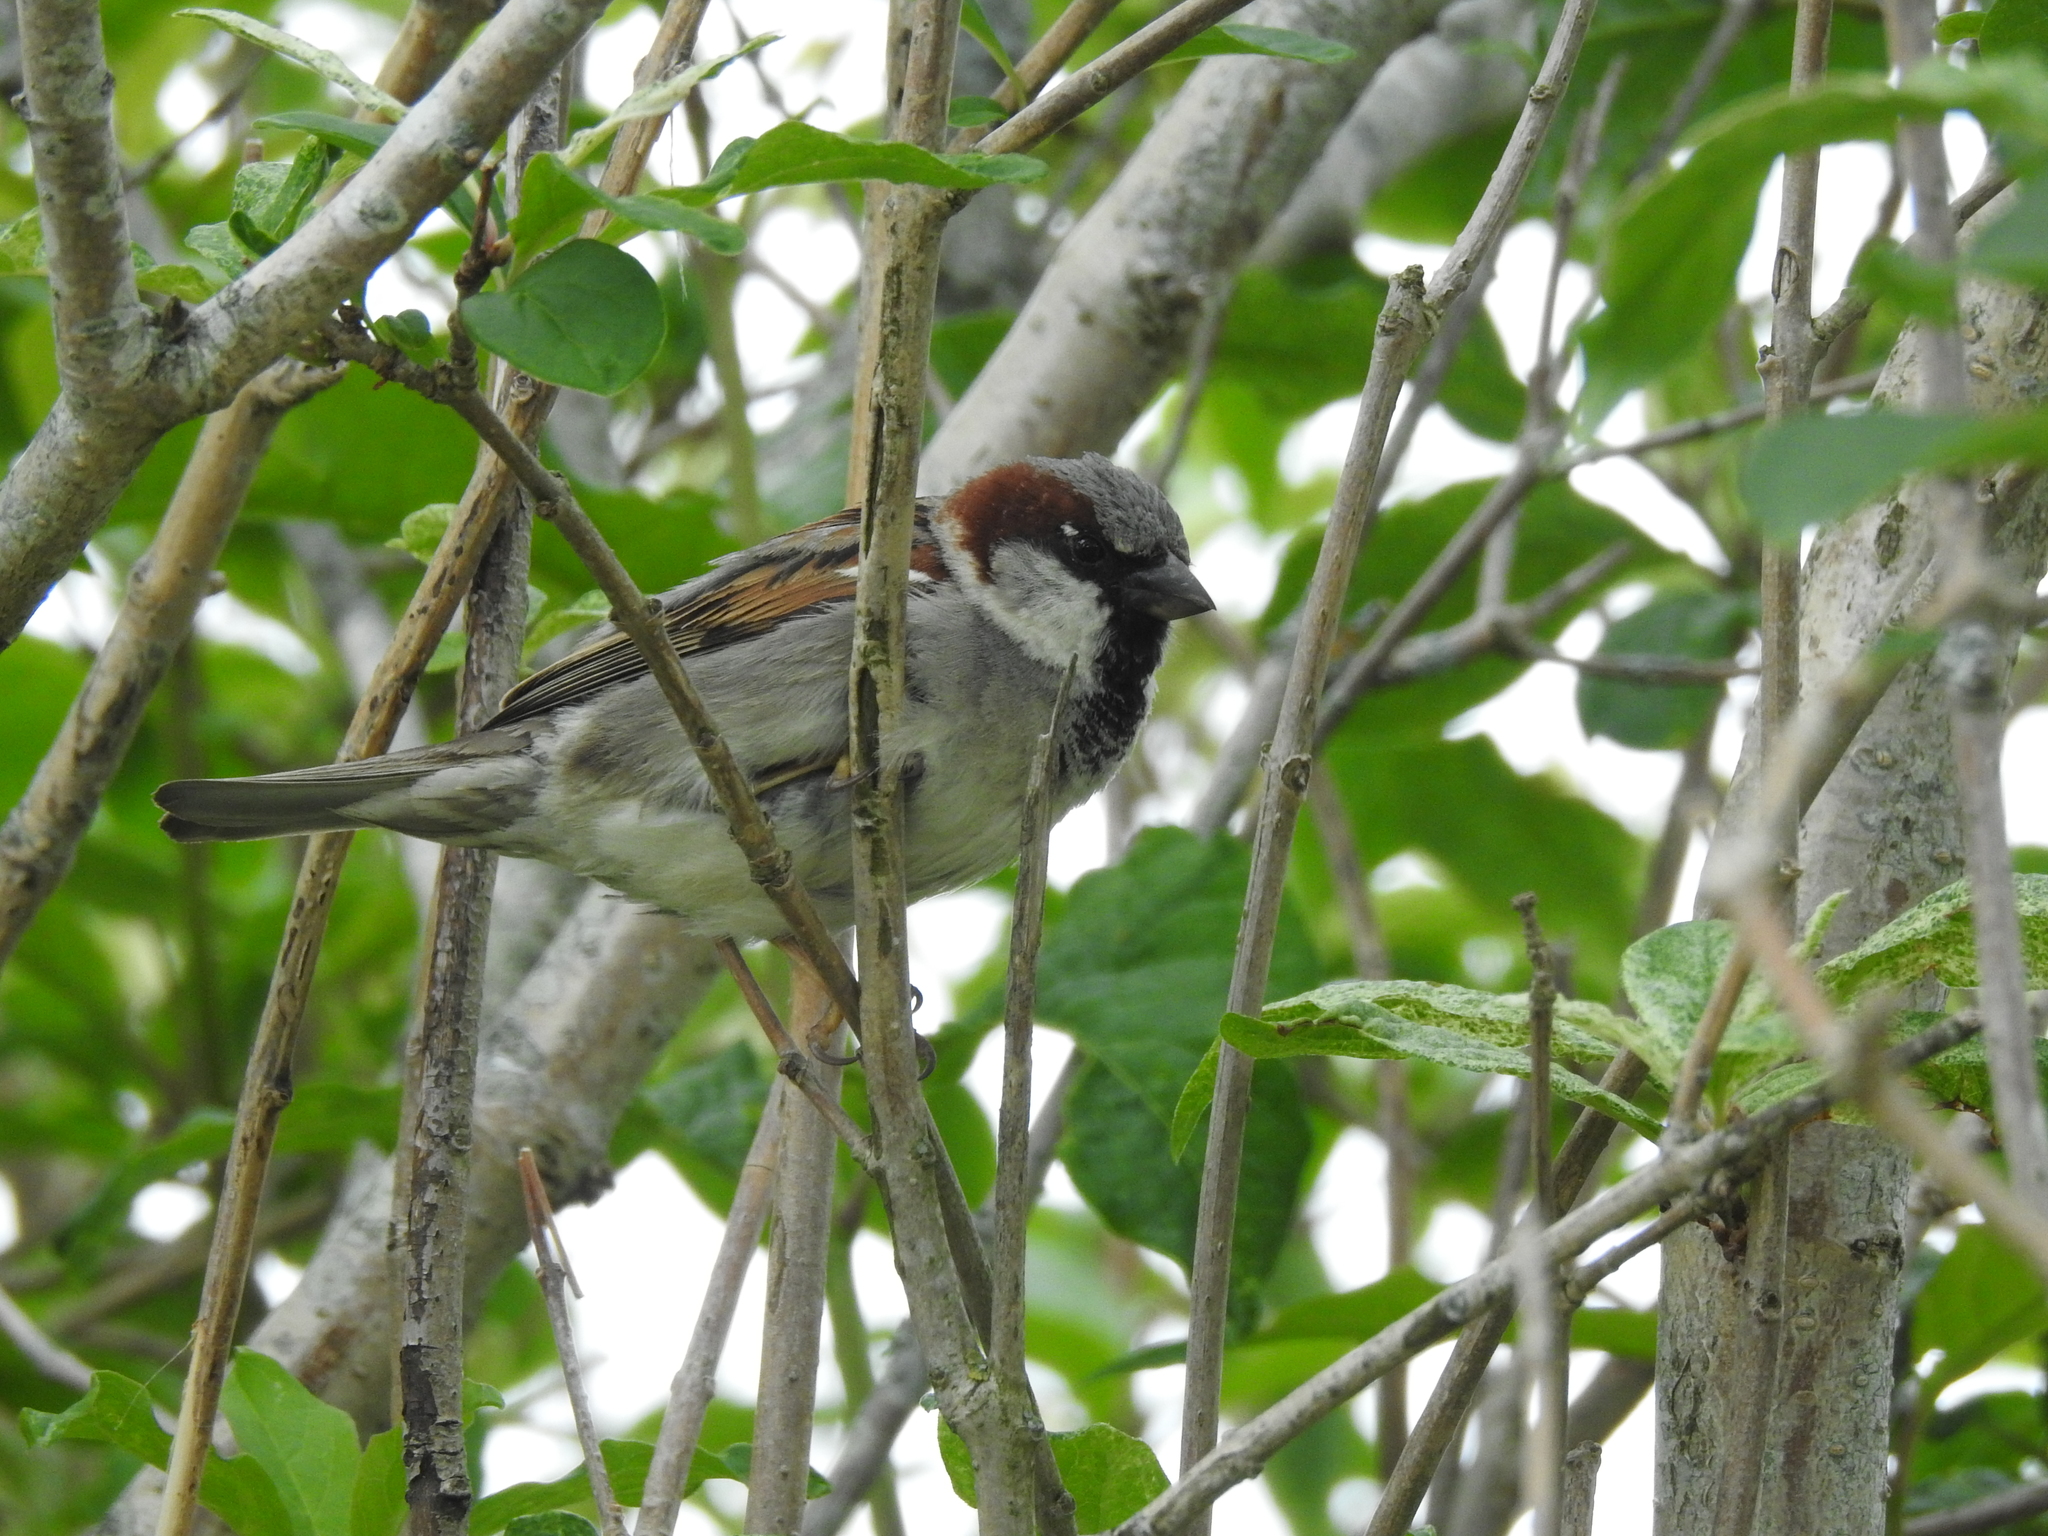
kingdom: Animalia
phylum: Chordata
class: Aves
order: Passeriformes
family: Passeridae
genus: Passer
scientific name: Passer domesticus
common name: House sparrow
